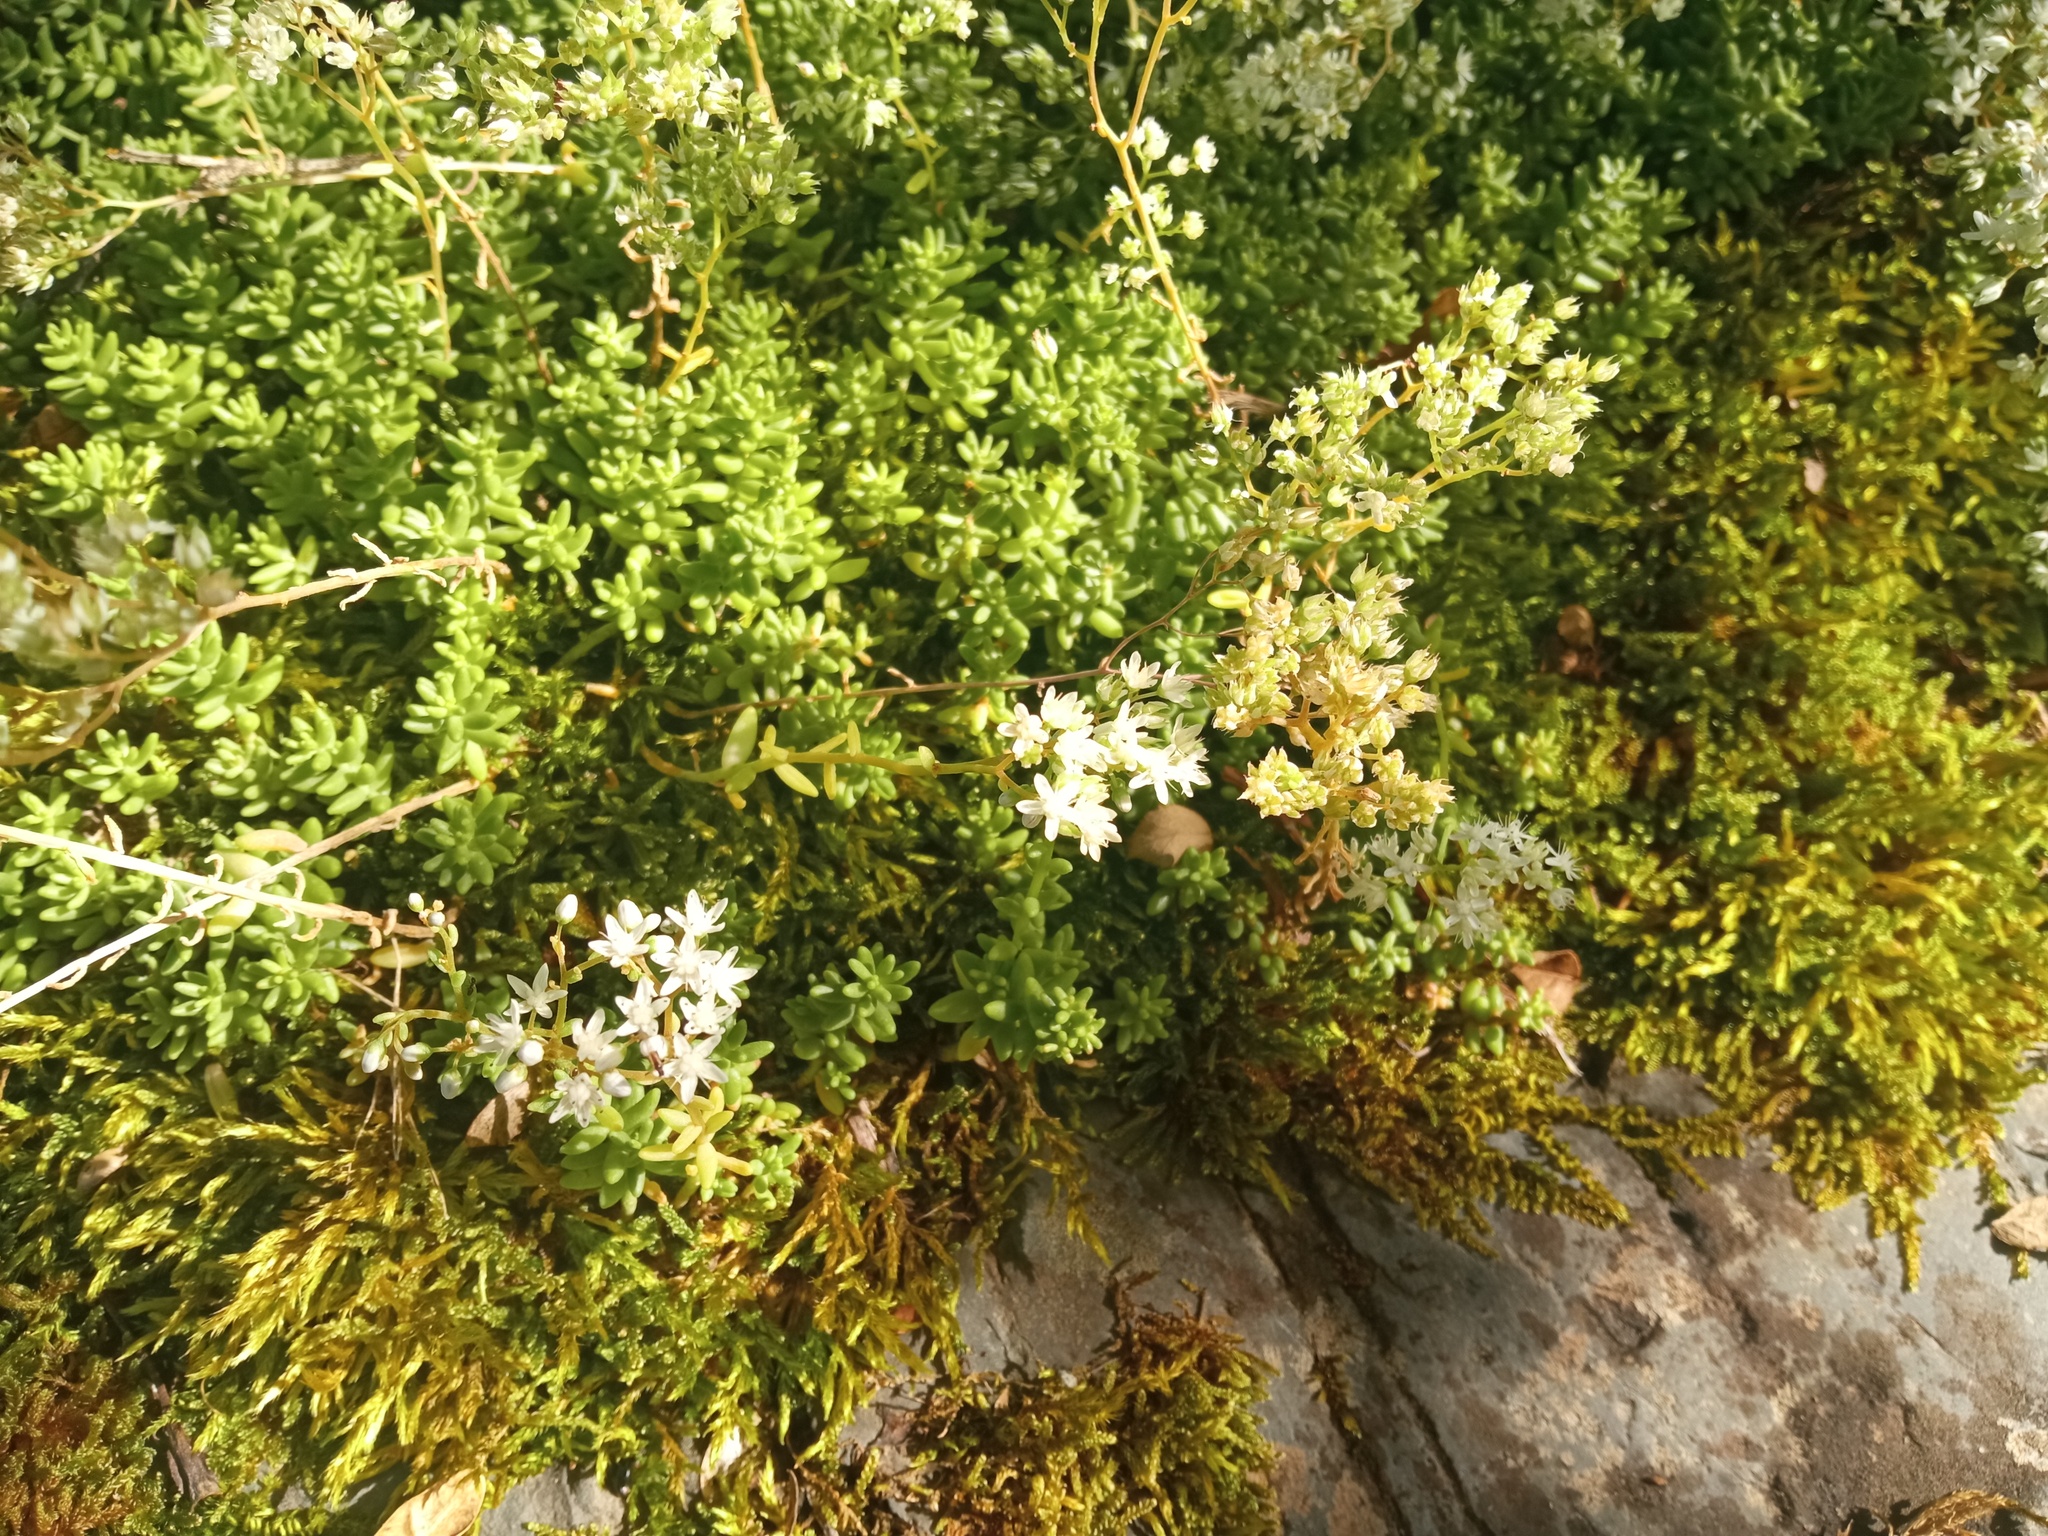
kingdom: Plantae
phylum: Tracheophyta
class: Magnoliopsida
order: Saxifragales
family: Crassulaceae
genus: Sedum
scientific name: Sedum album
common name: White stonecrop
